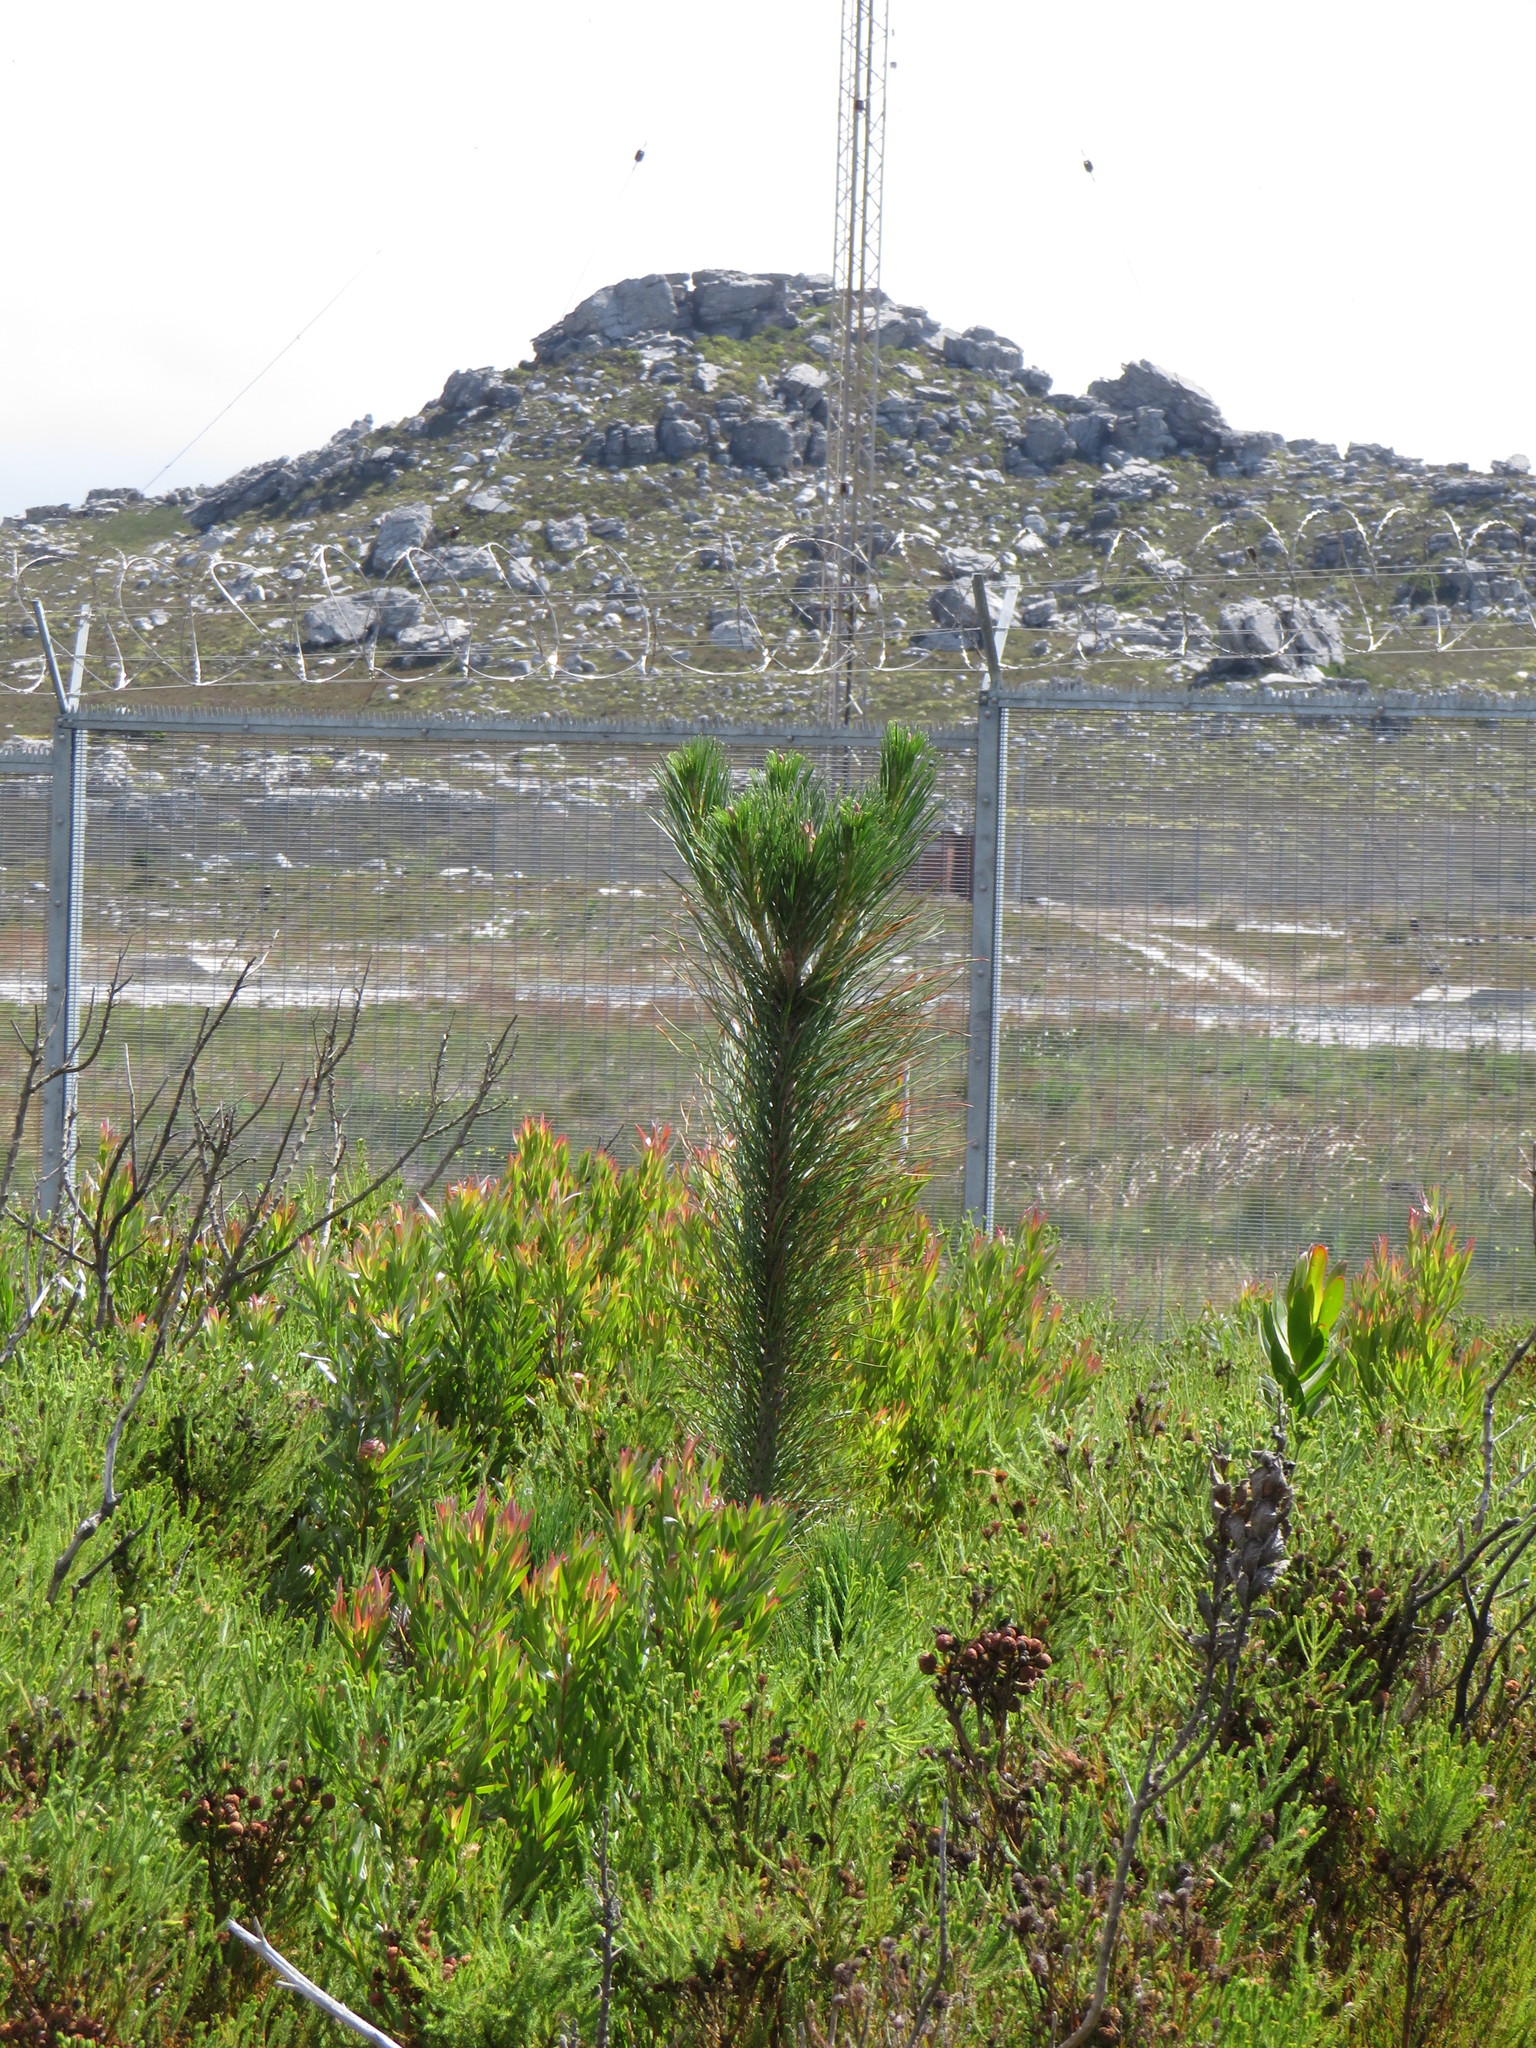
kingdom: Plantae
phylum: Tracheophyta
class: Pinopsida
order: Pinales
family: Pinaceae
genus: Pinus
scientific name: Pinus radiata
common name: Monterey pine
